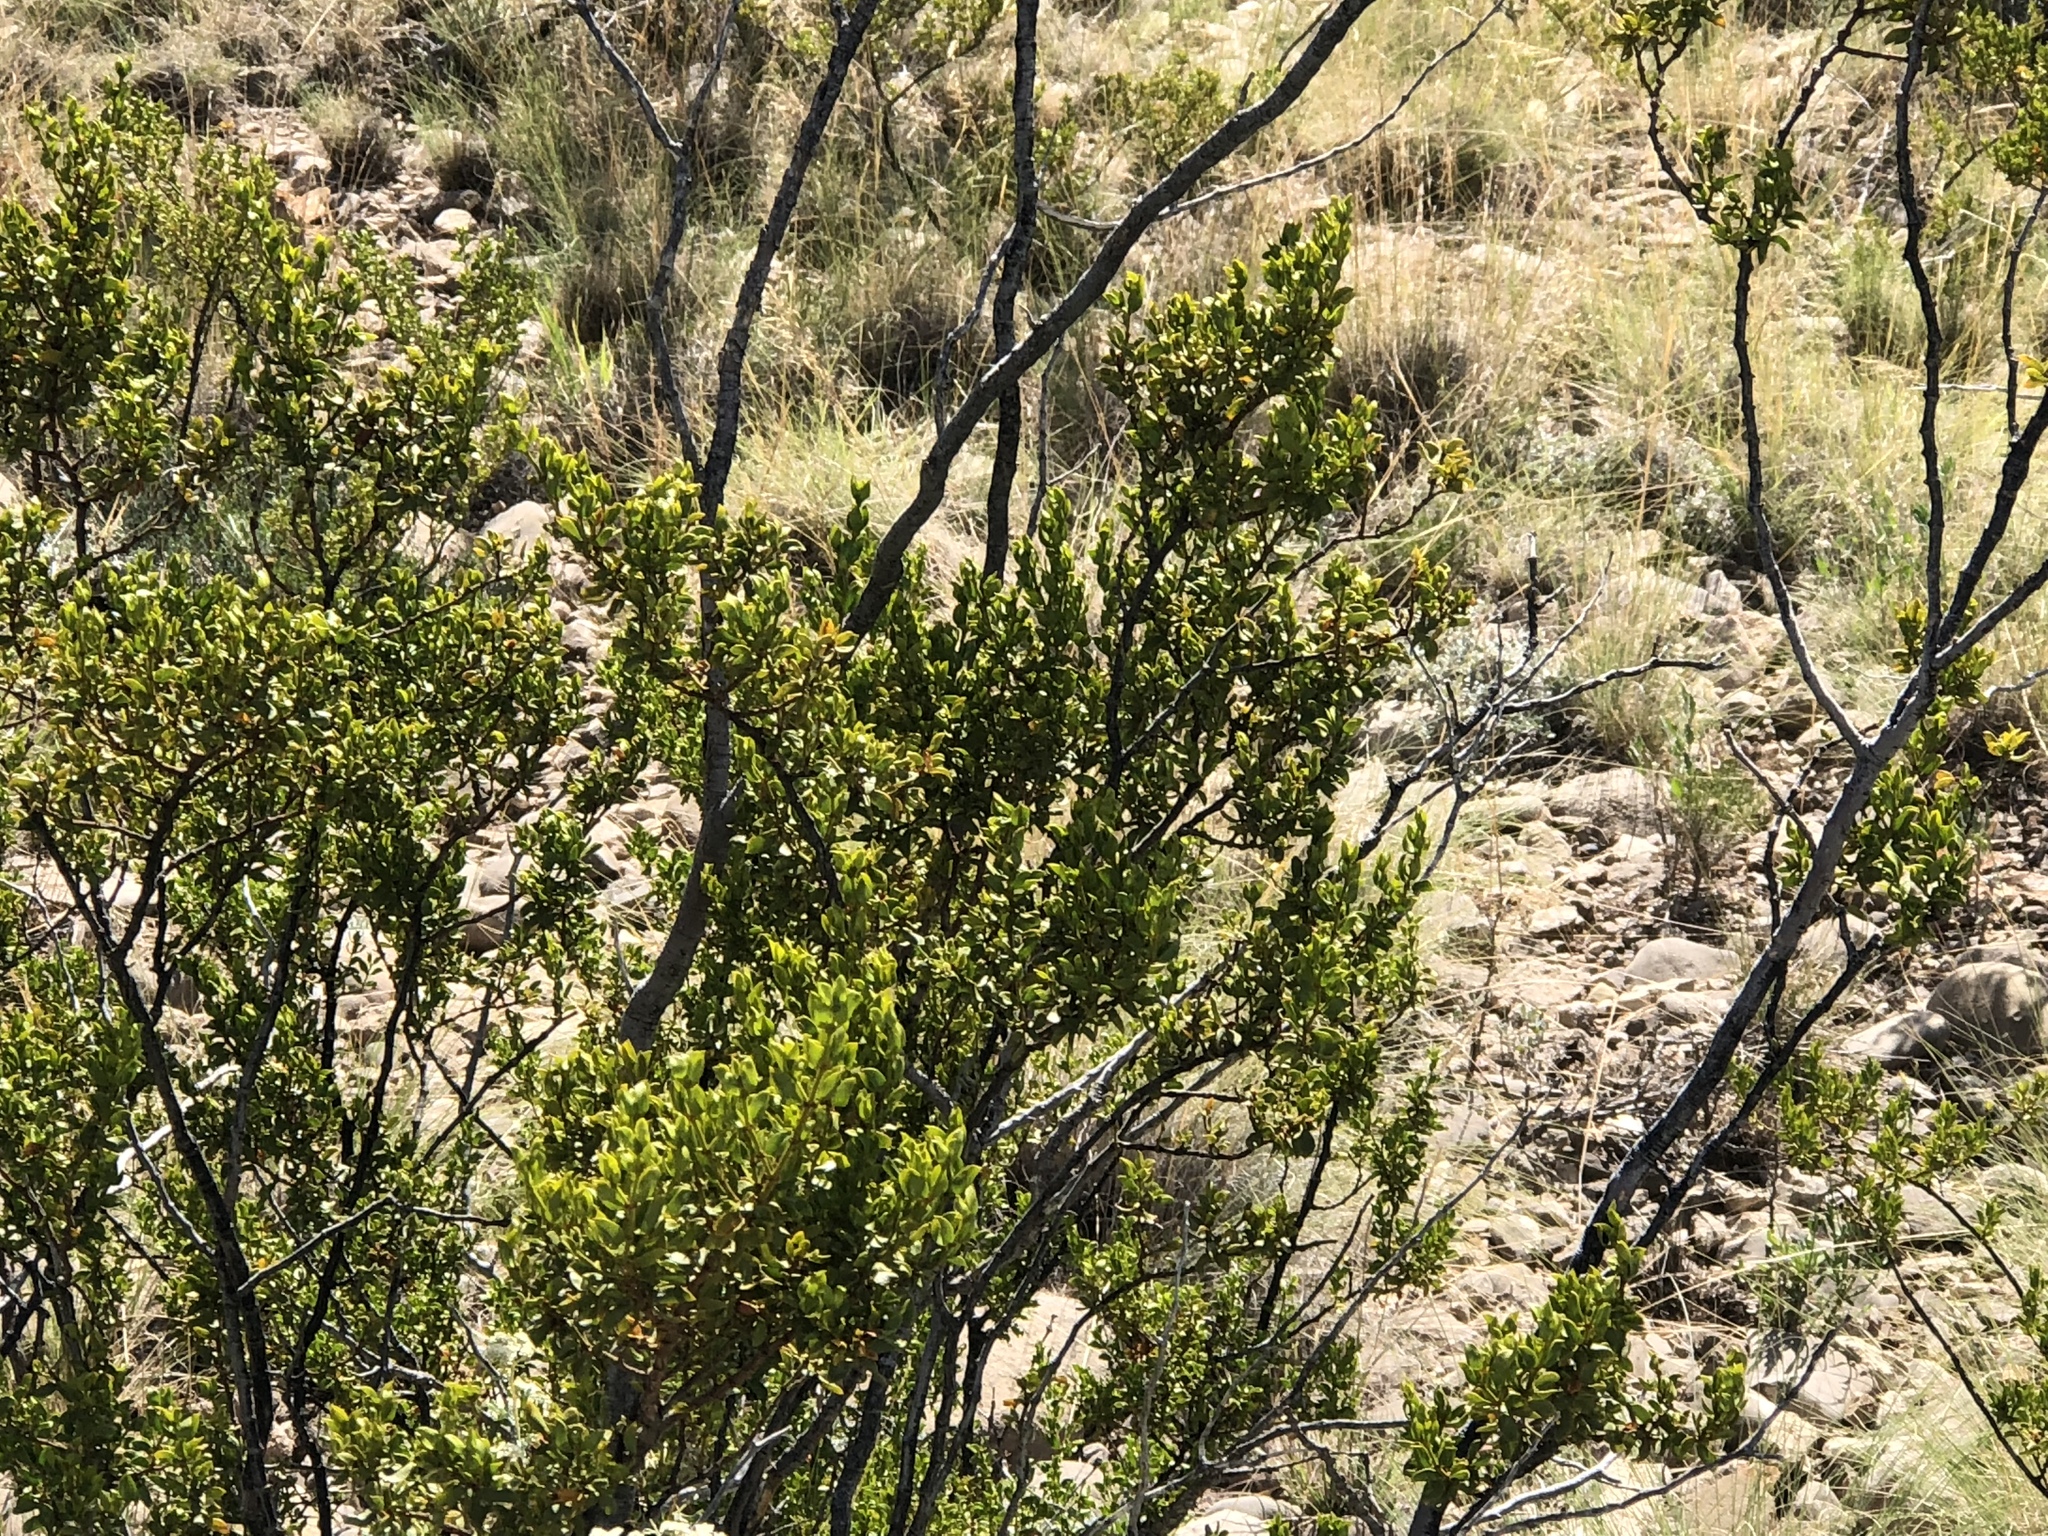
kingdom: Plantae
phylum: Tracheophyta
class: Magnoliopsida
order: Zygophyllales
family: Zygophyllaceae
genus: Larrea
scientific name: Larrea tridentata
